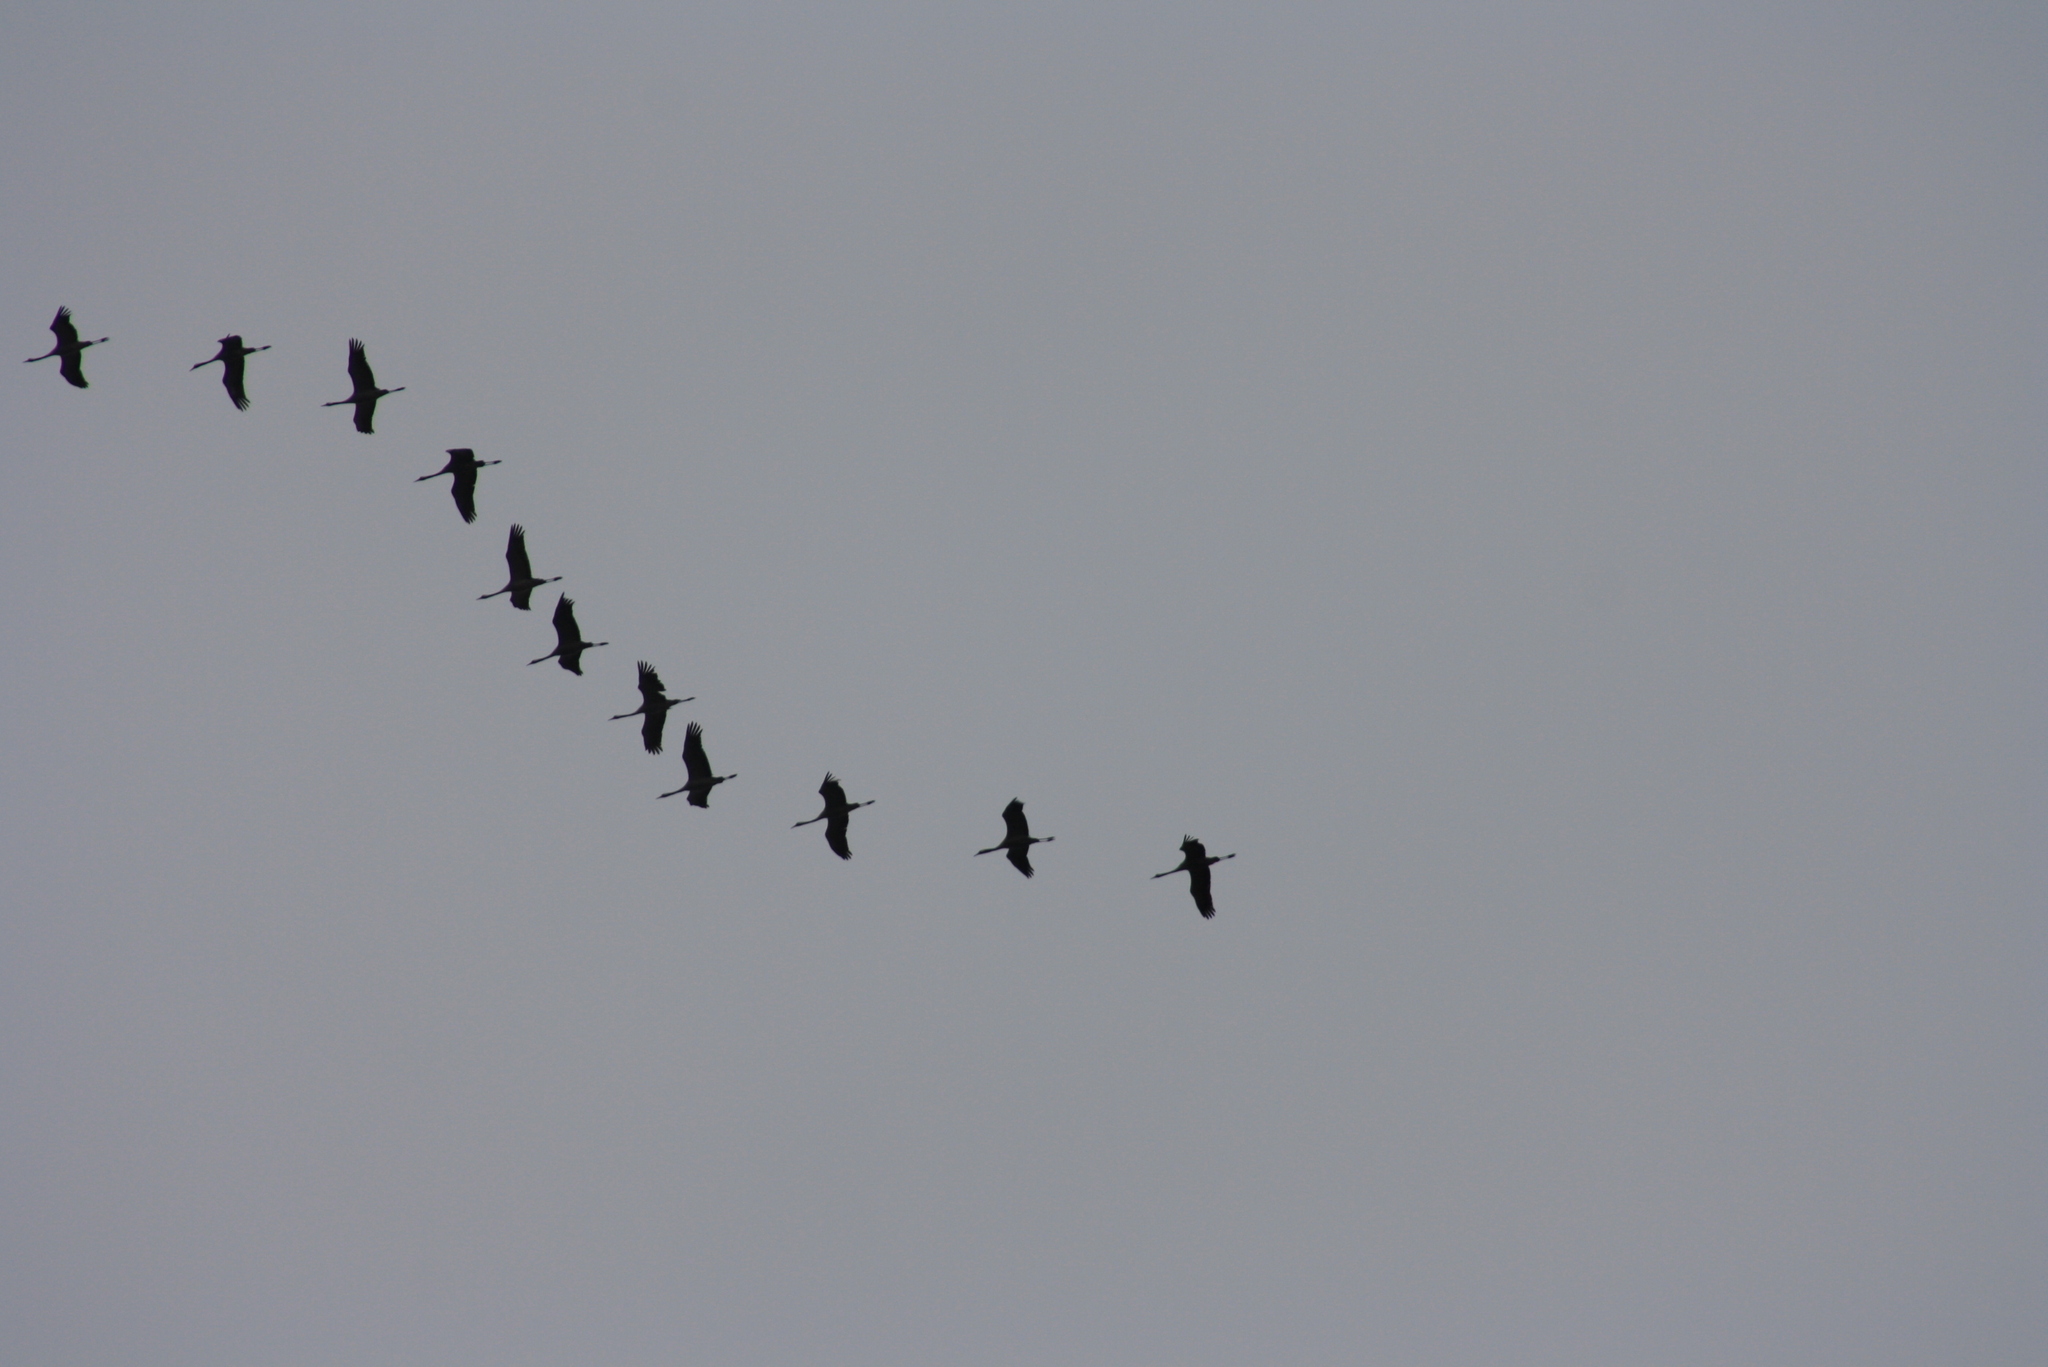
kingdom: Animalia
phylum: Chordata
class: Aves
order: Gruiformes
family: Gruidae
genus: Grus
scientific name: Grus grus
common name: Common crane
